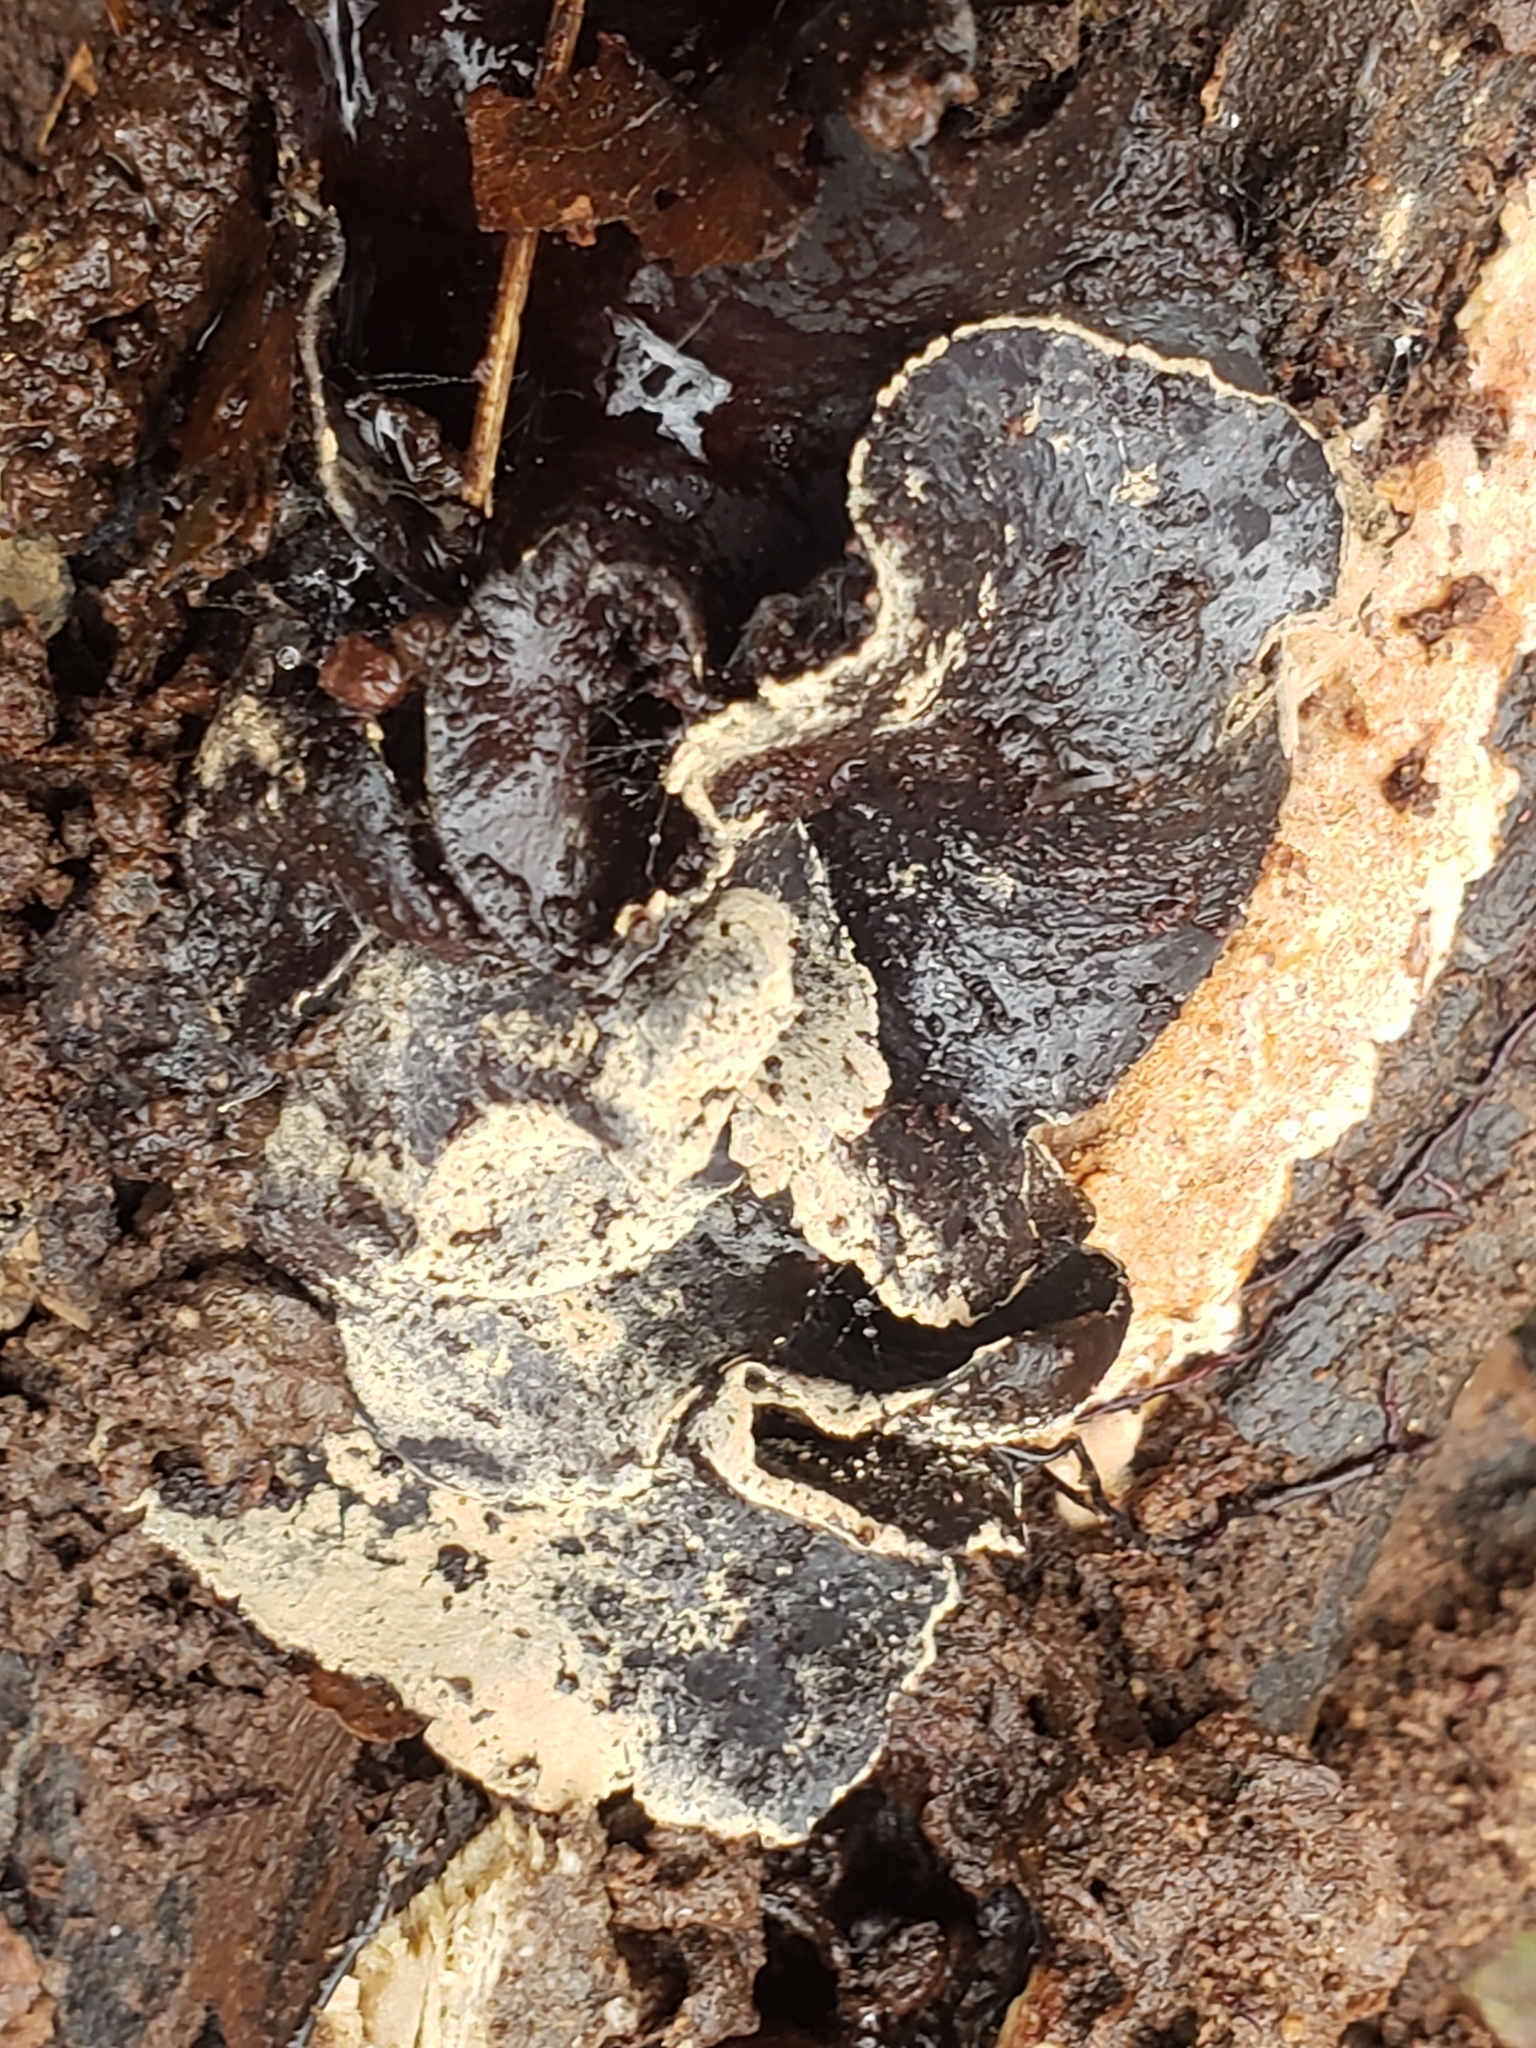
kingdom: Fungi
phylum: Ascomycota
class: Leotiomycetes
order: Helotiales
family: Cordieritidaceae
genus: Diplocarpa
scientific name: Diplocarpa irregularis
